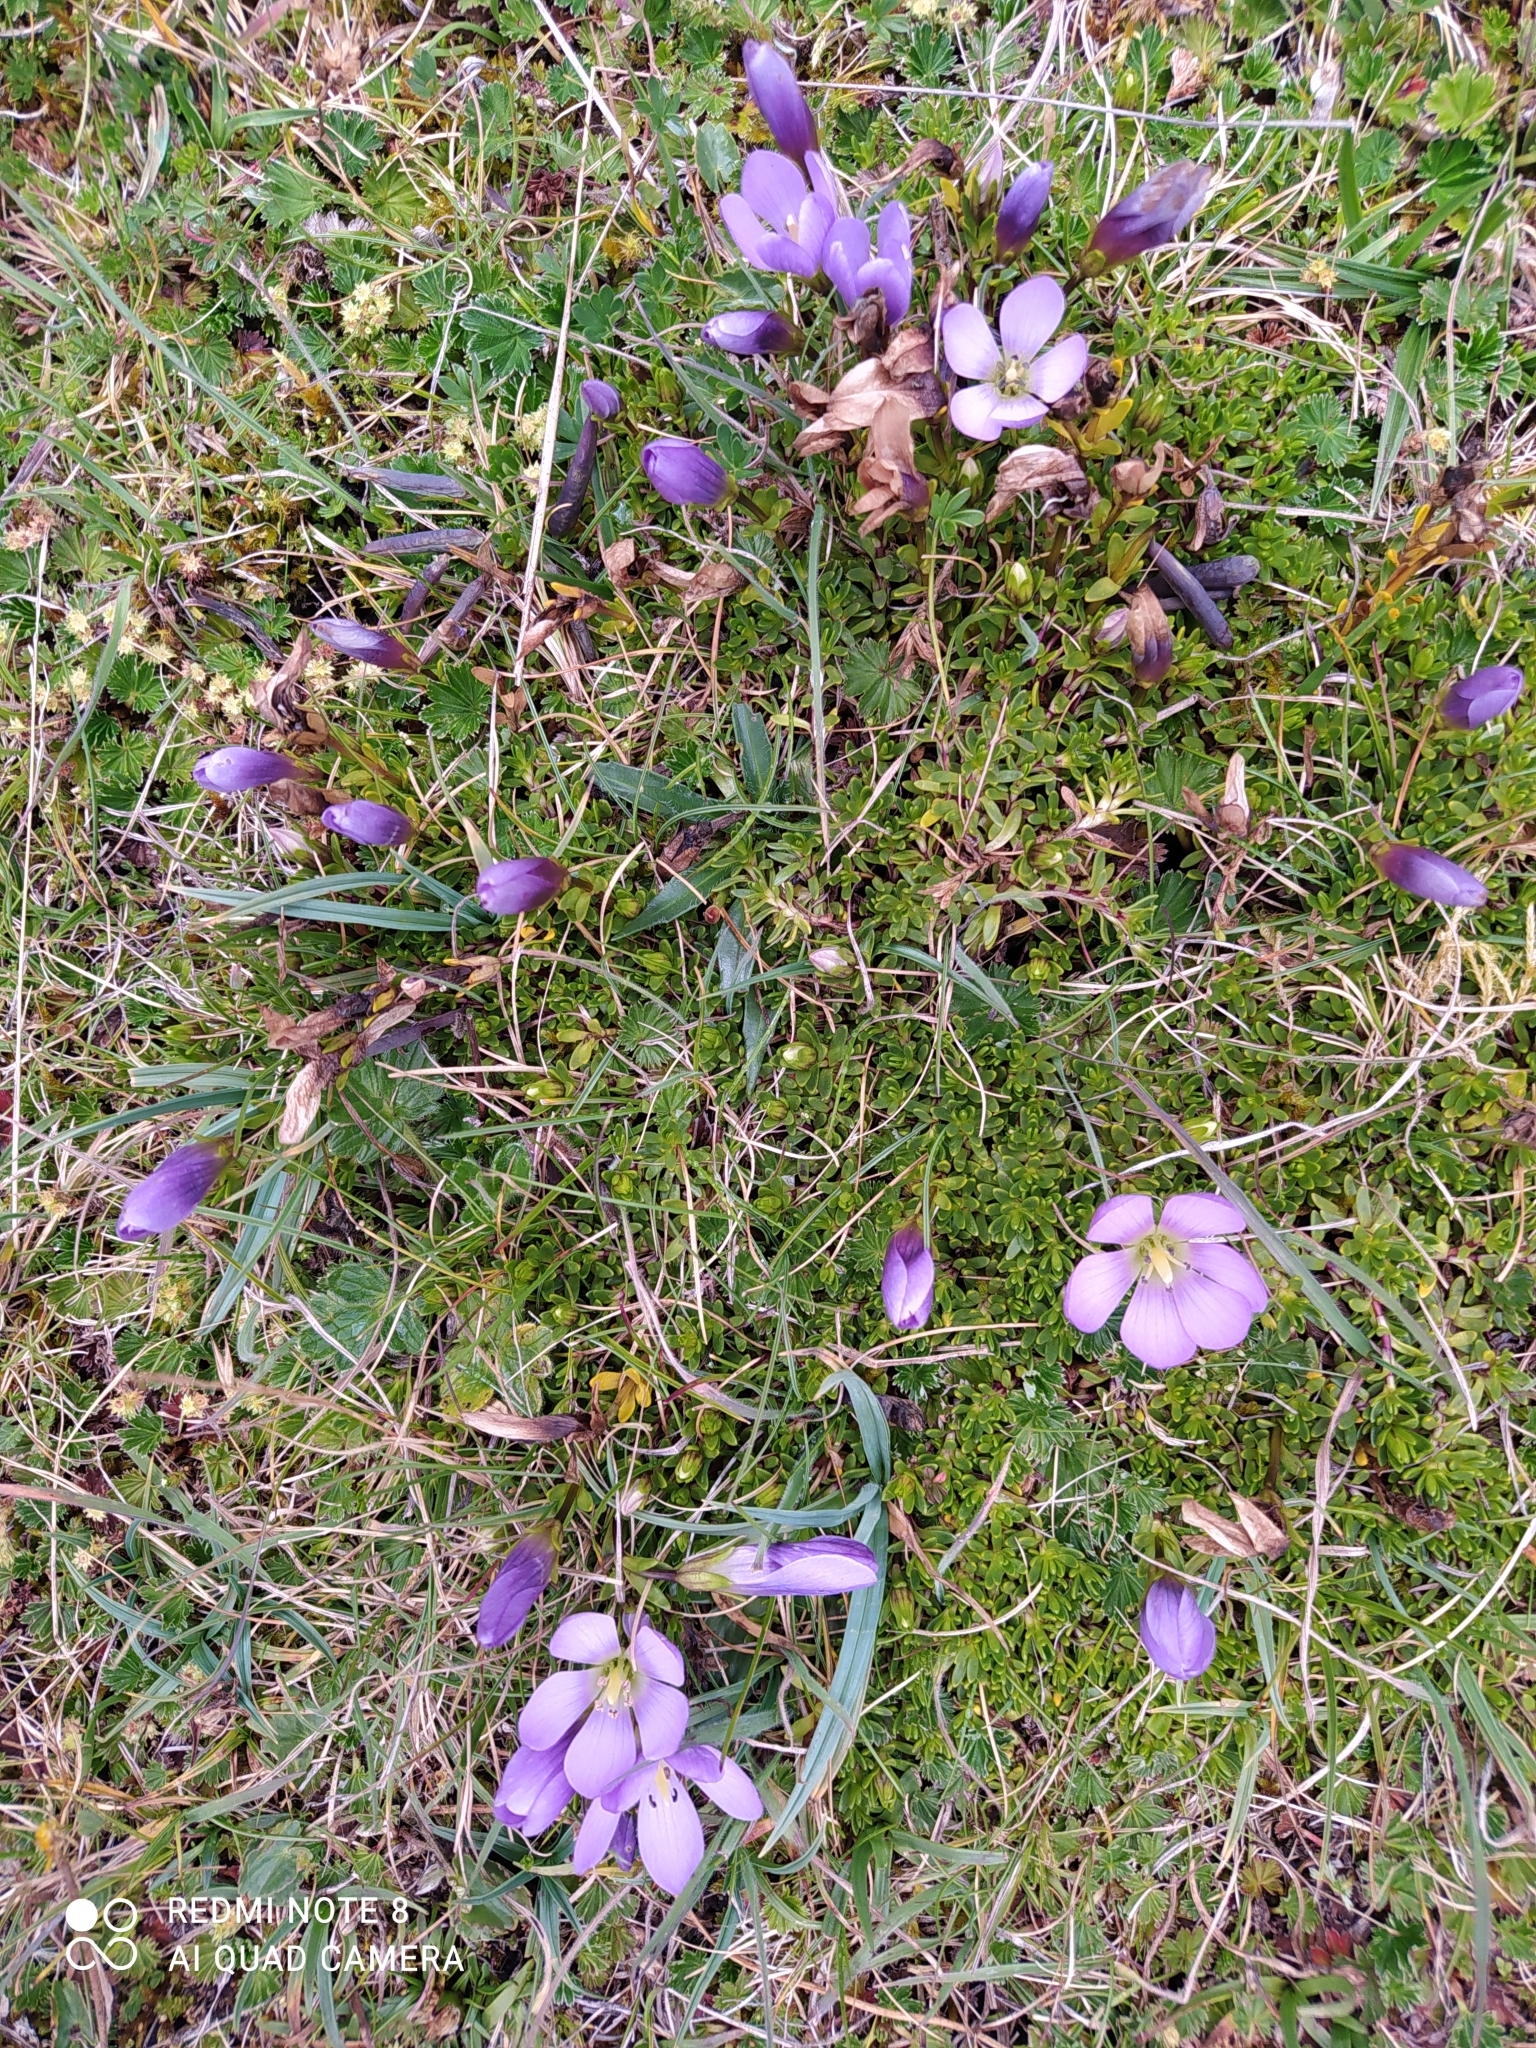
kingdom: Plantae
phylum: Tracheophyta
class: Magnoliopsida
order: Gentianales
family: Gentianaceae
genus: Gentianella
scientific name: Gentianella cerastioides
